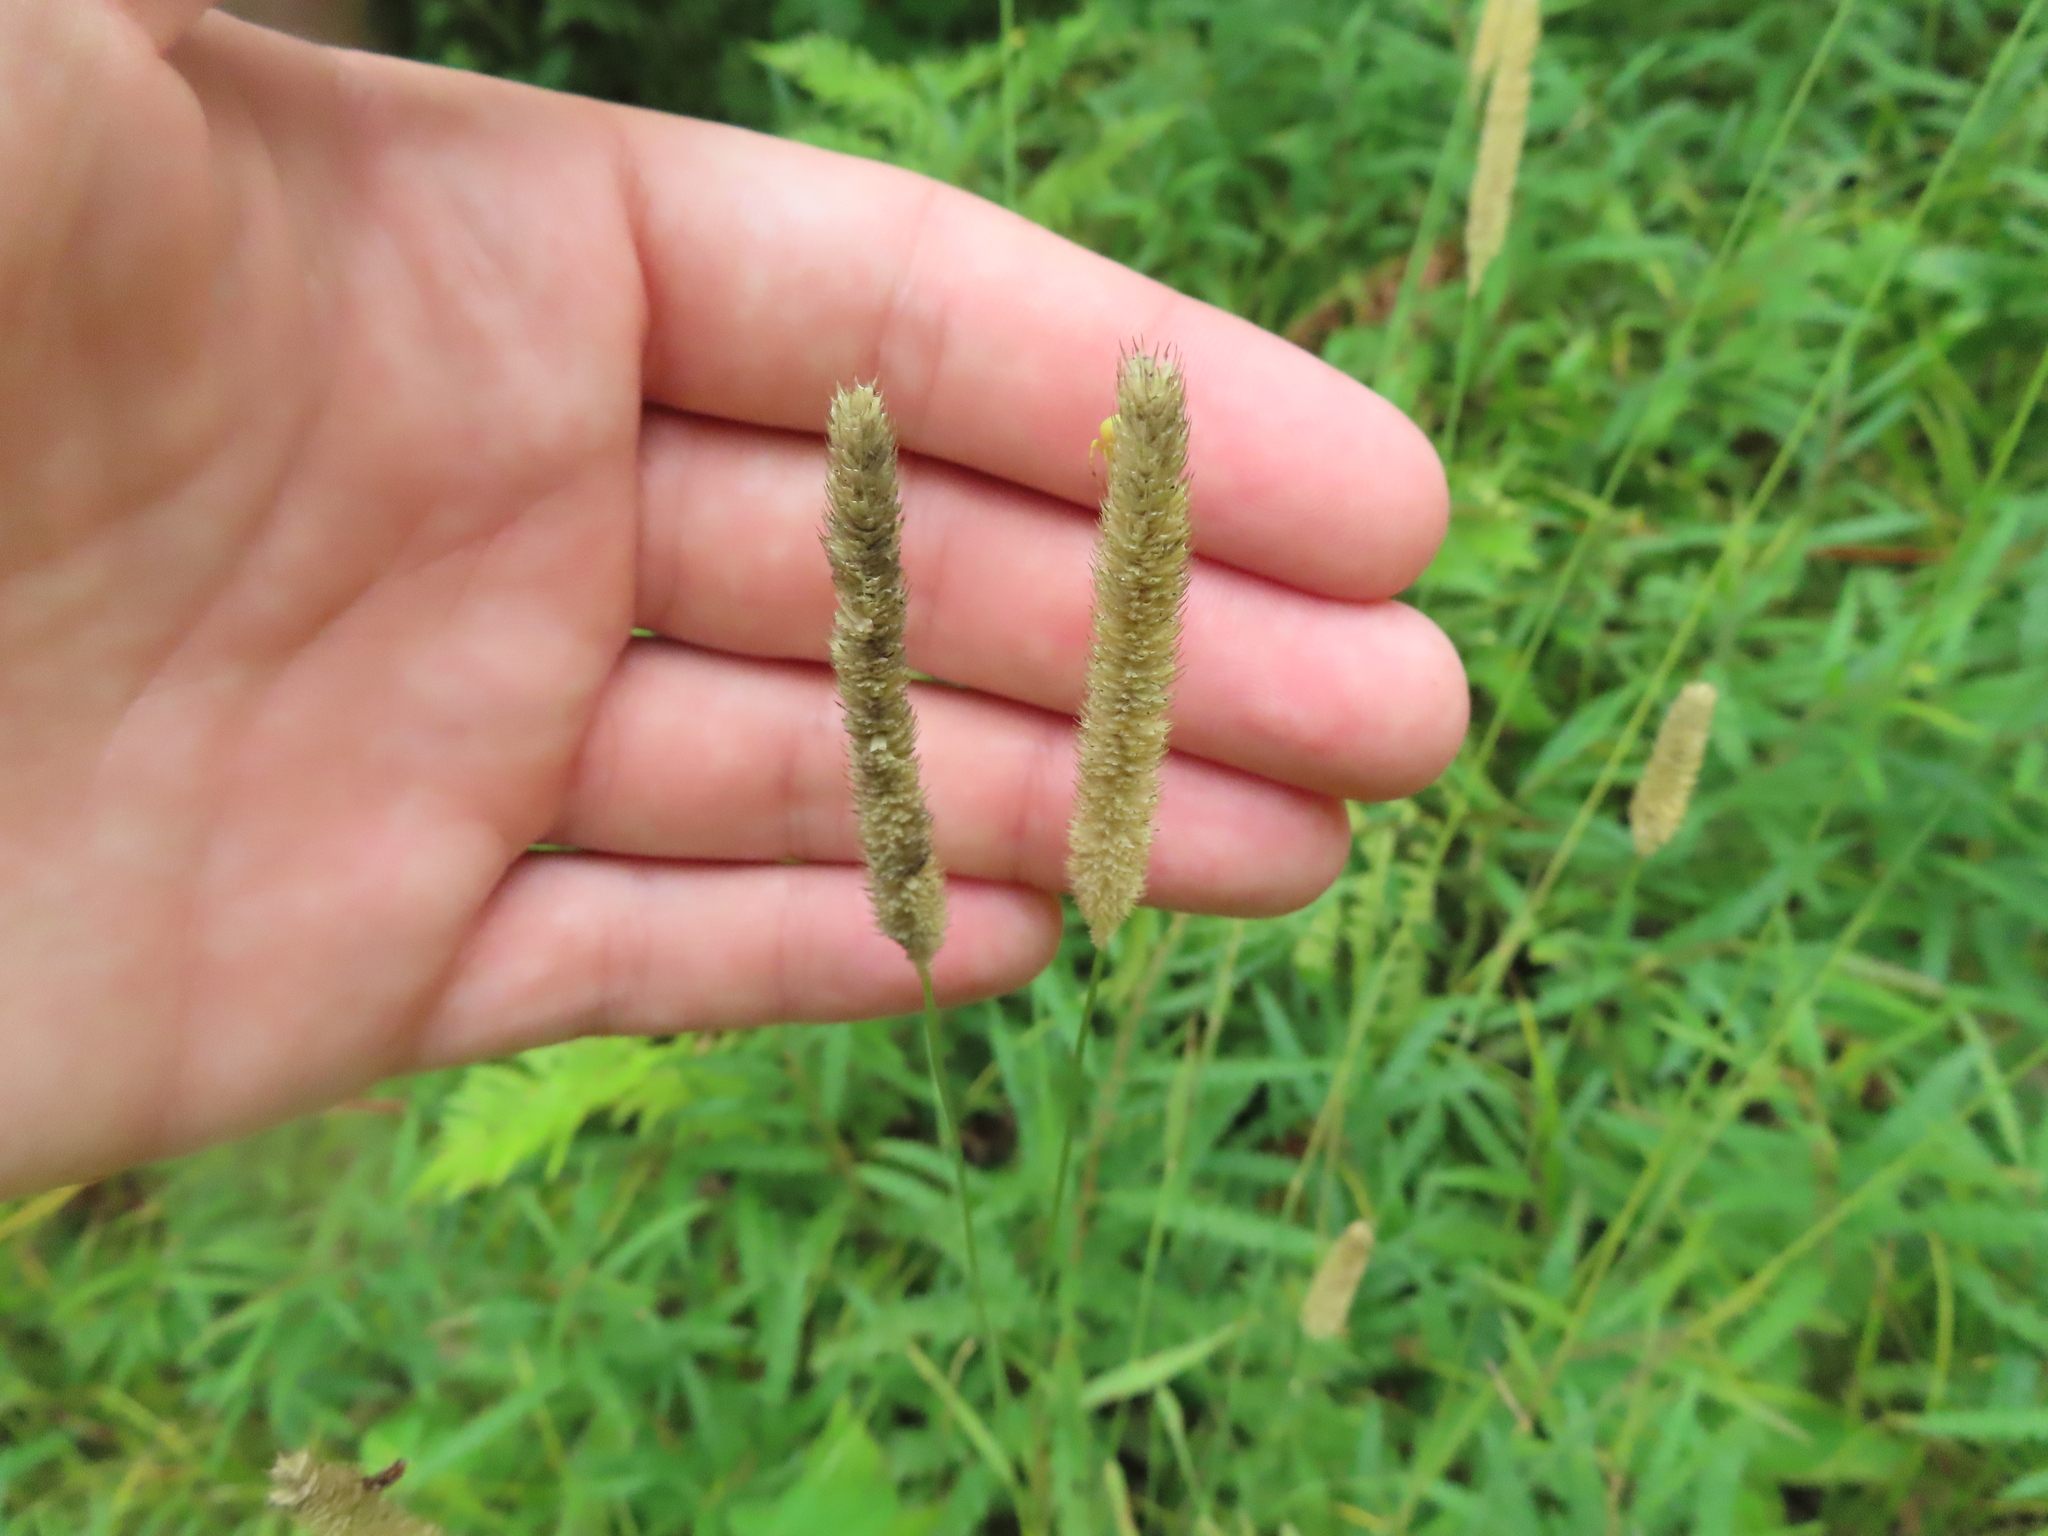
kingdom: Plantae
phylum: Tracheophyta
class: Liliopsida
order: Poales
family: Poaceae
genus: Phleum
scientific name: Phleum pratense
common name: Timothy grass
